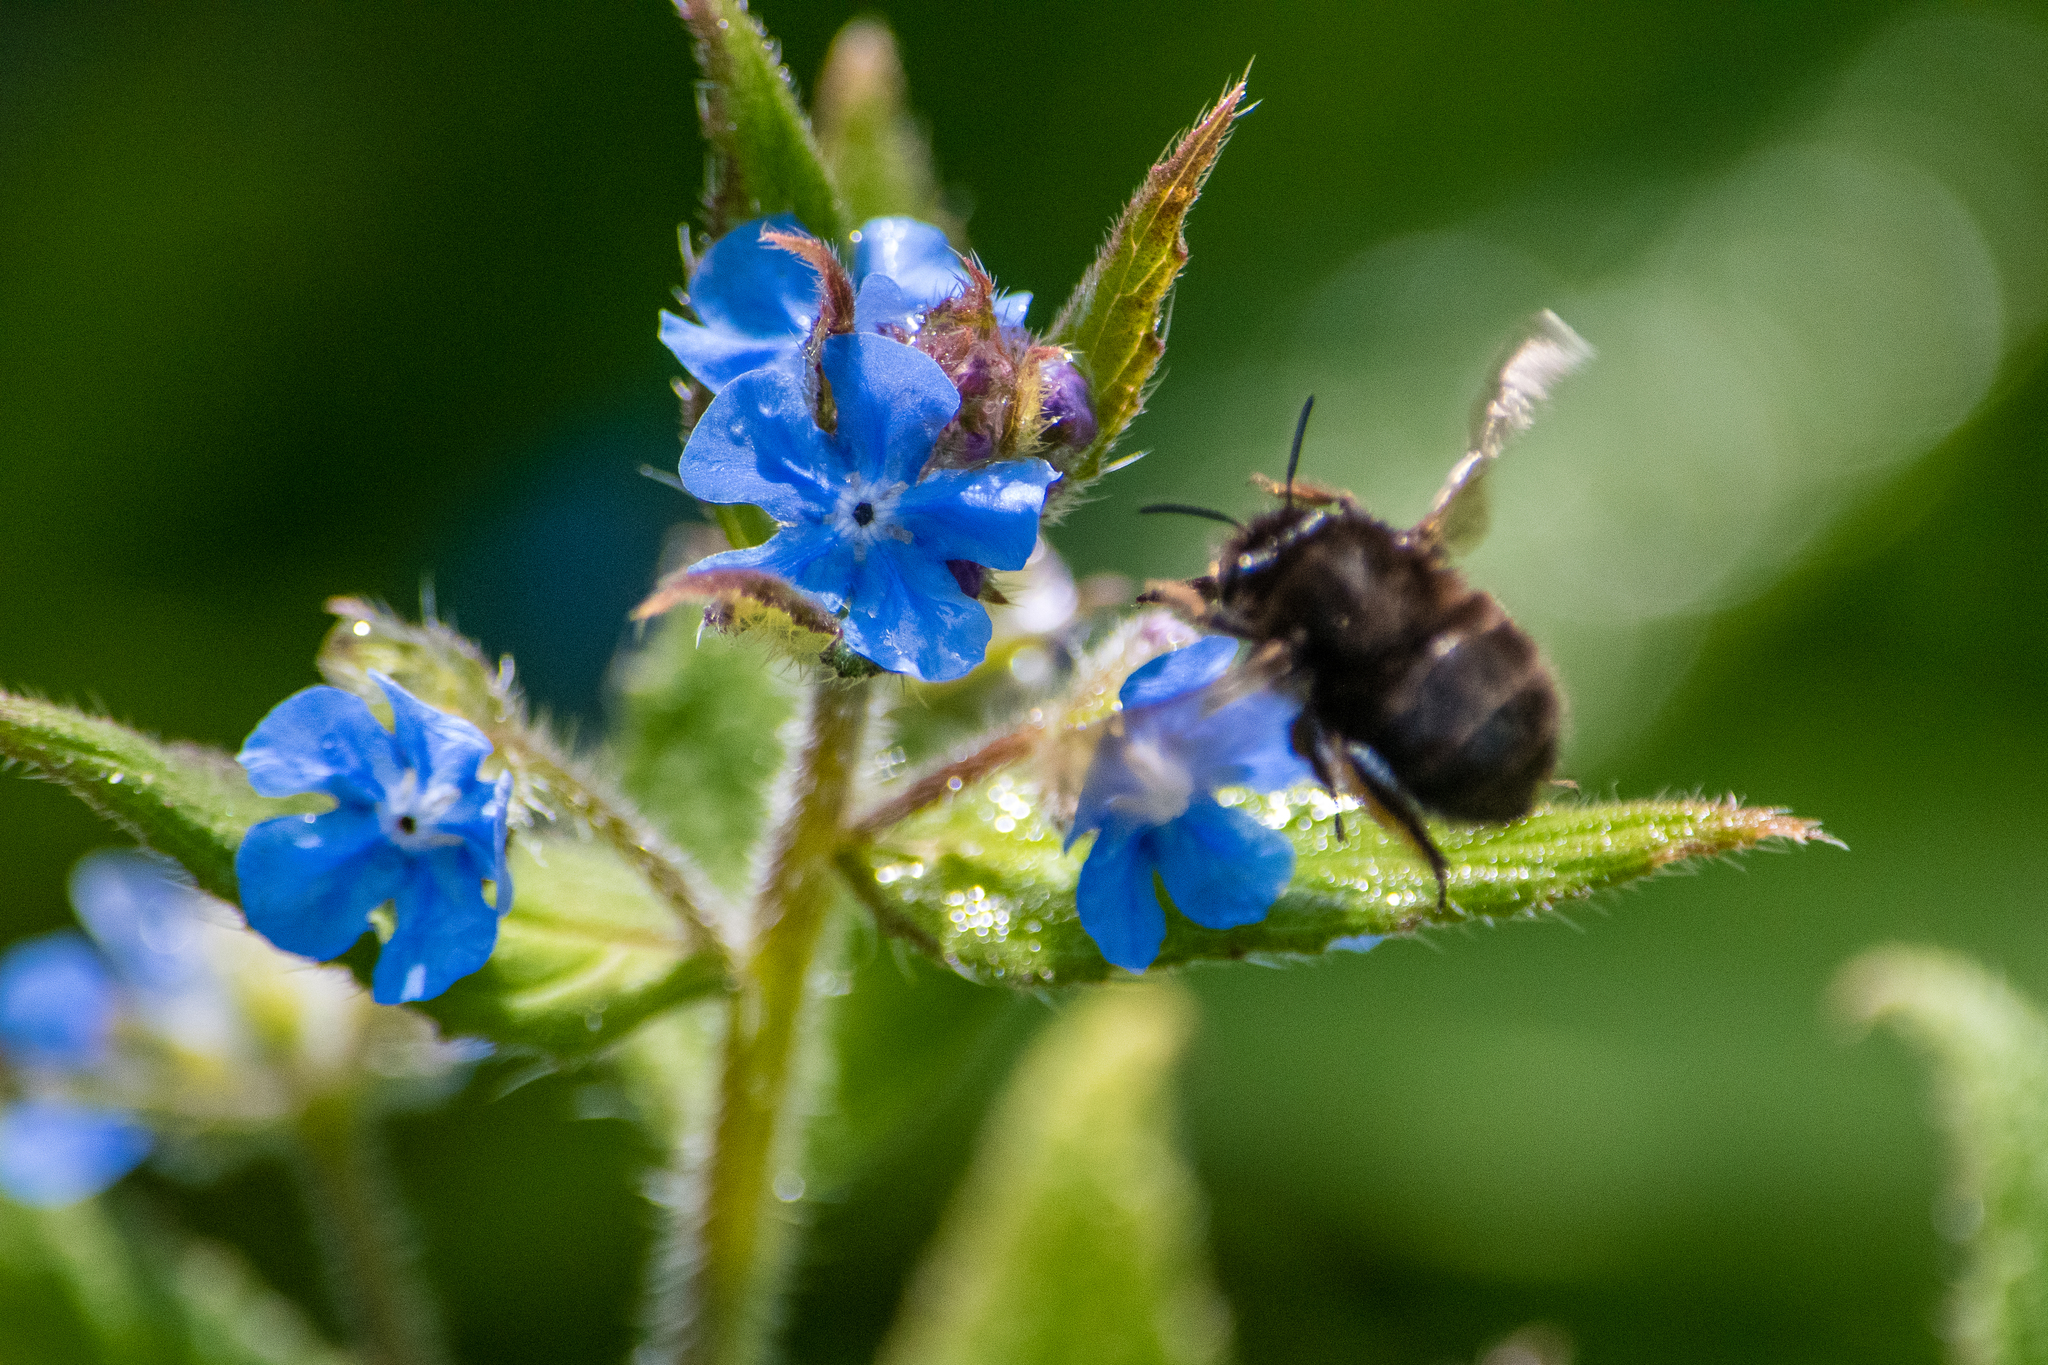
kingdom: Animalia
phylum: Arthropoda
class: Insecta
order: Hymenoptera
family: Apidae
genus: Anthophora
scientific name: Anthophora plumipes
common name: Hairy-footed flower bee
